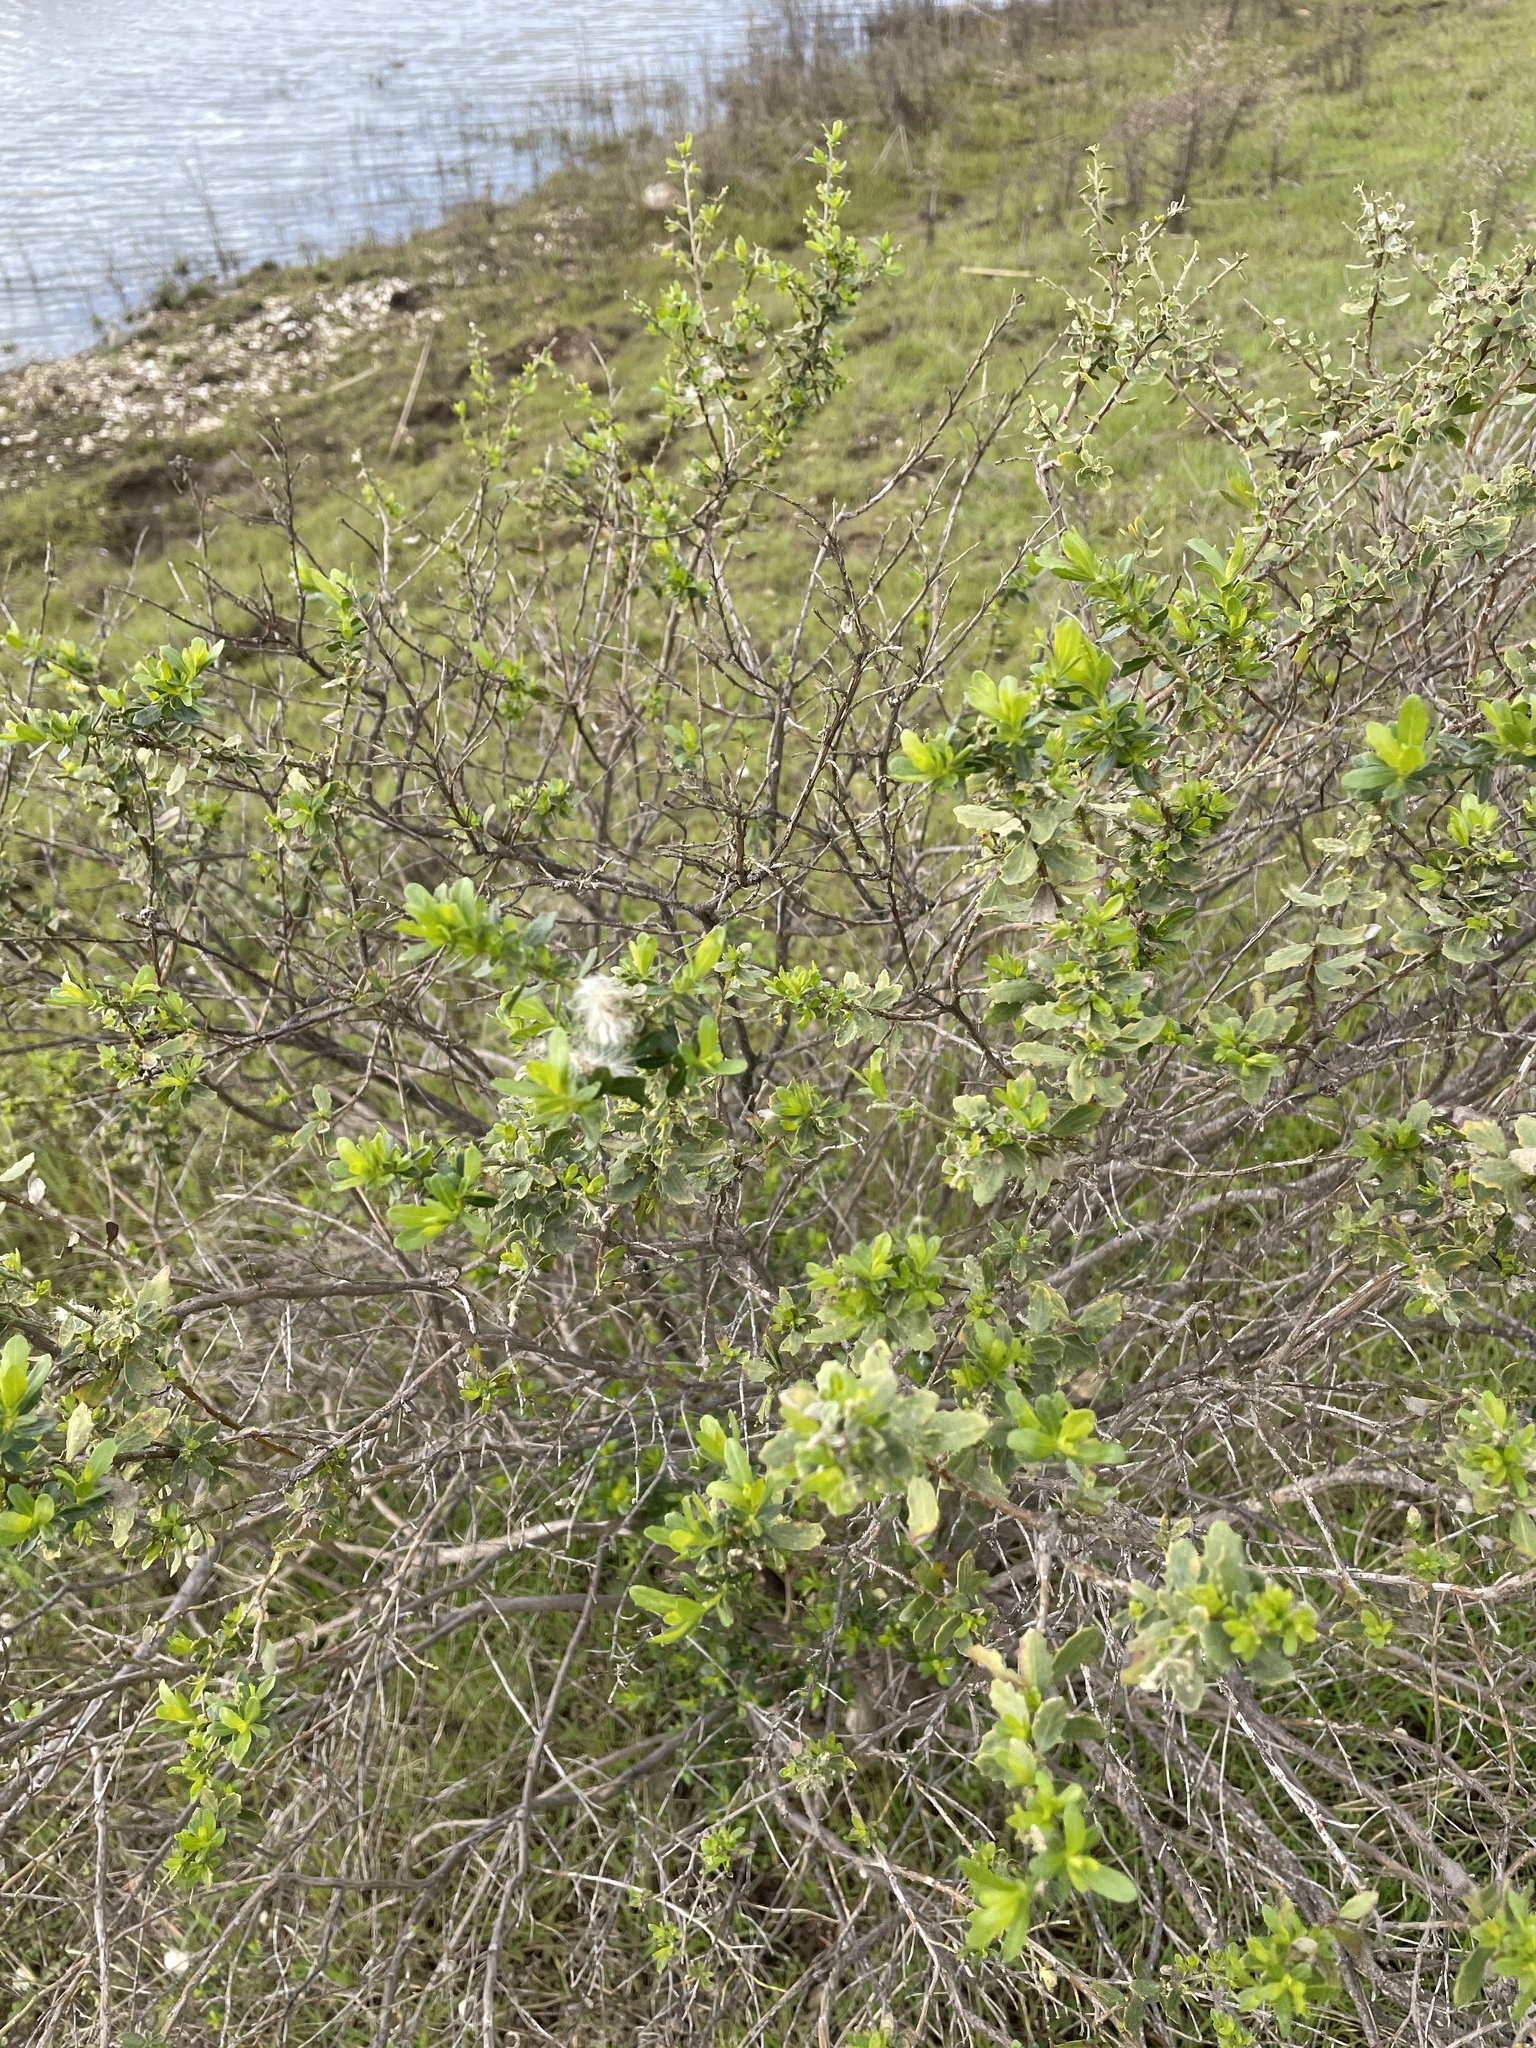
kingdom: Plantae
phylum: Tracheophyta
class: Magnoliopsida
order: Asterales
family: Asteraceae
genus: Baccharis
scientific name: Baccharis pilularis
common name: Coyotebrush
